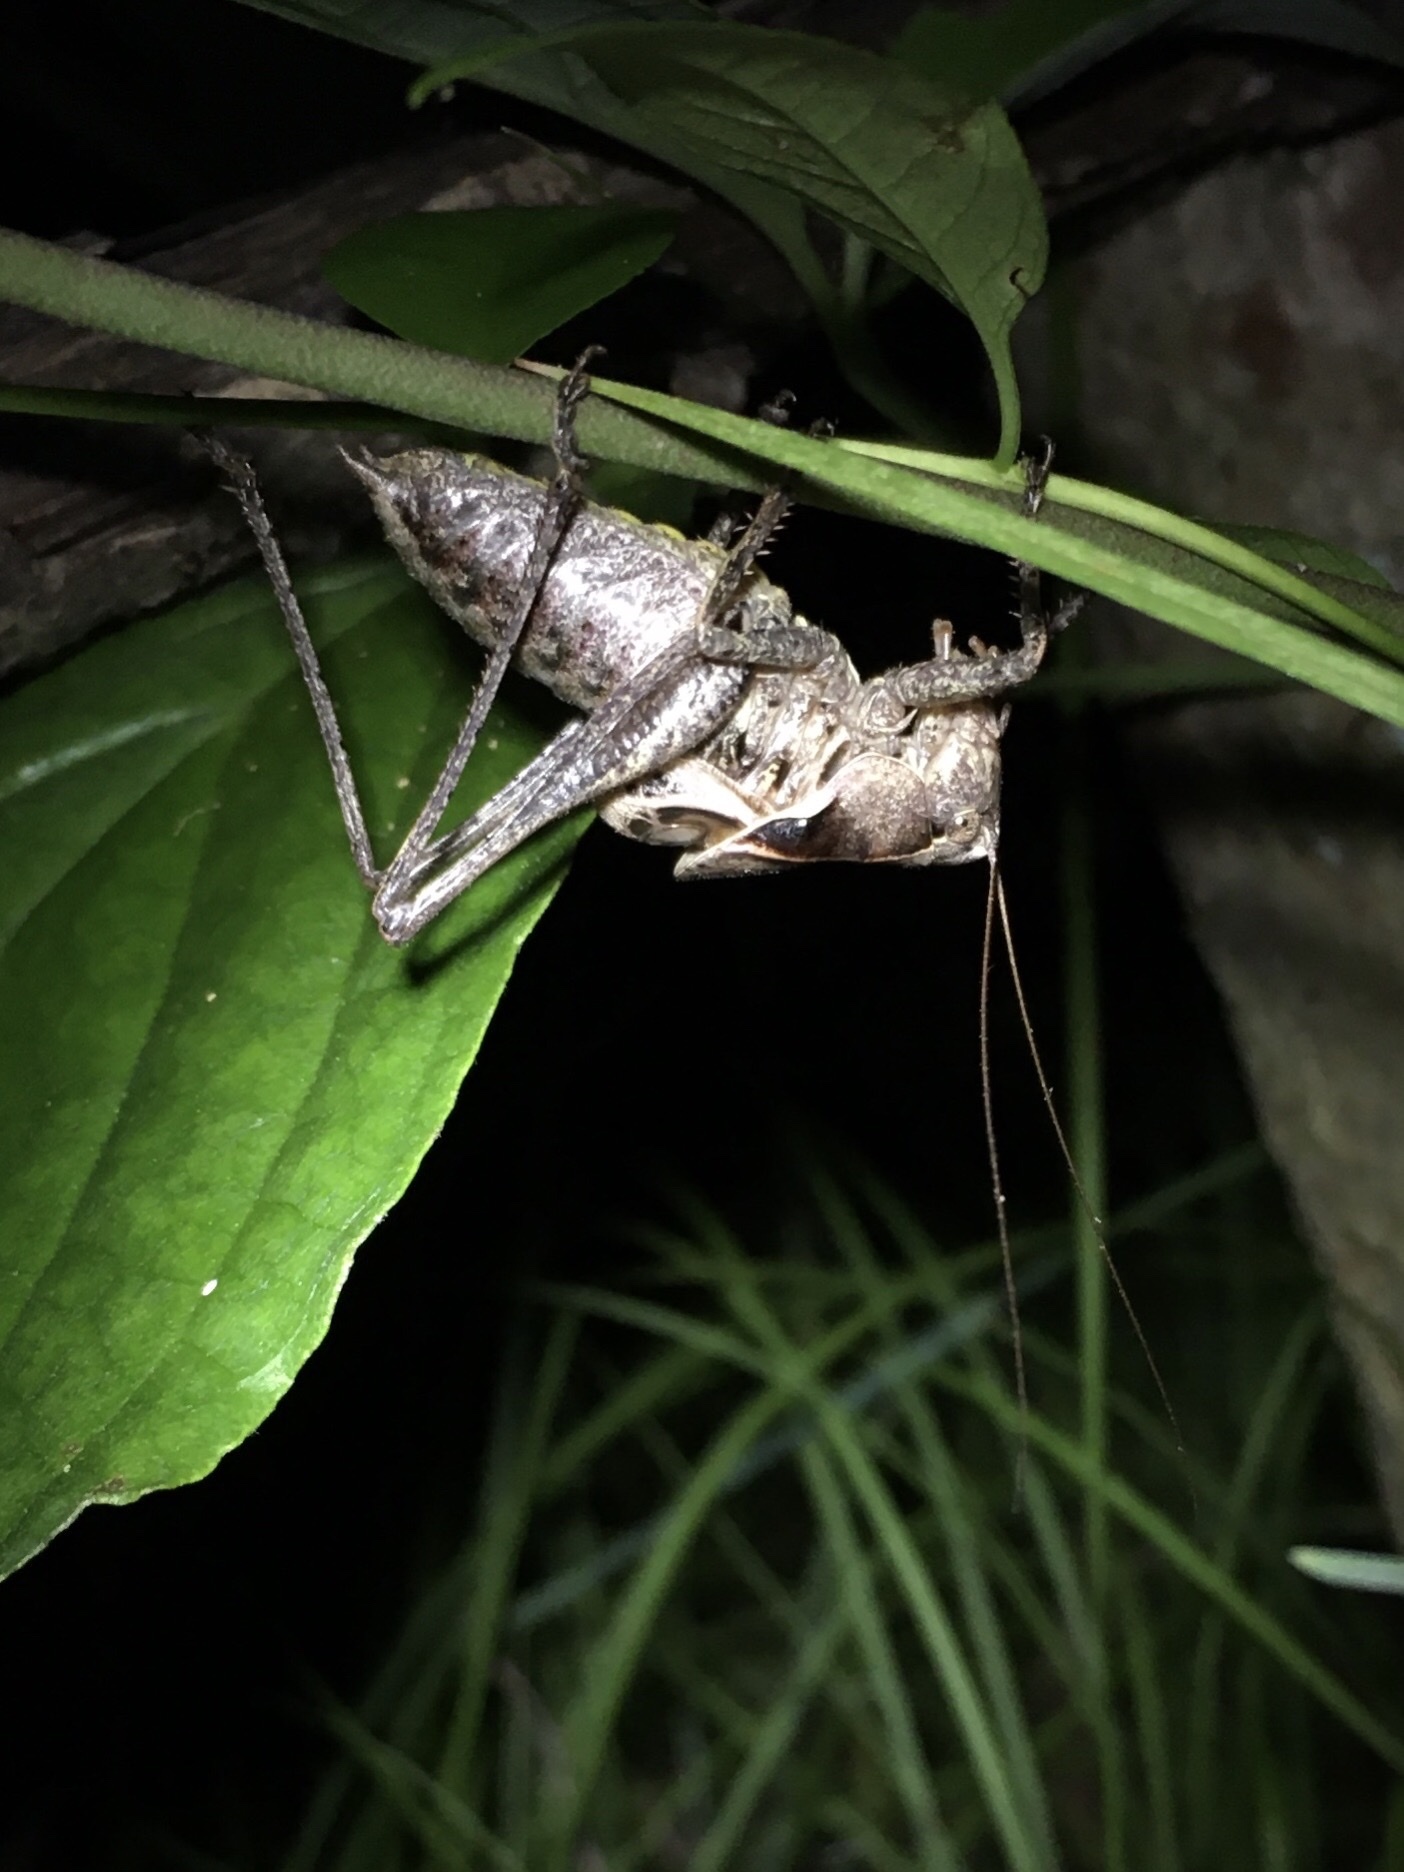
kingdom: Animalia
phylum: Arthropoda
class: Insecta
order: Orthoptera
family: Tettigoniidae
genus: Atlanticus
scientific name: Atlanticus davisi
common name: Davis's shield-bearer
